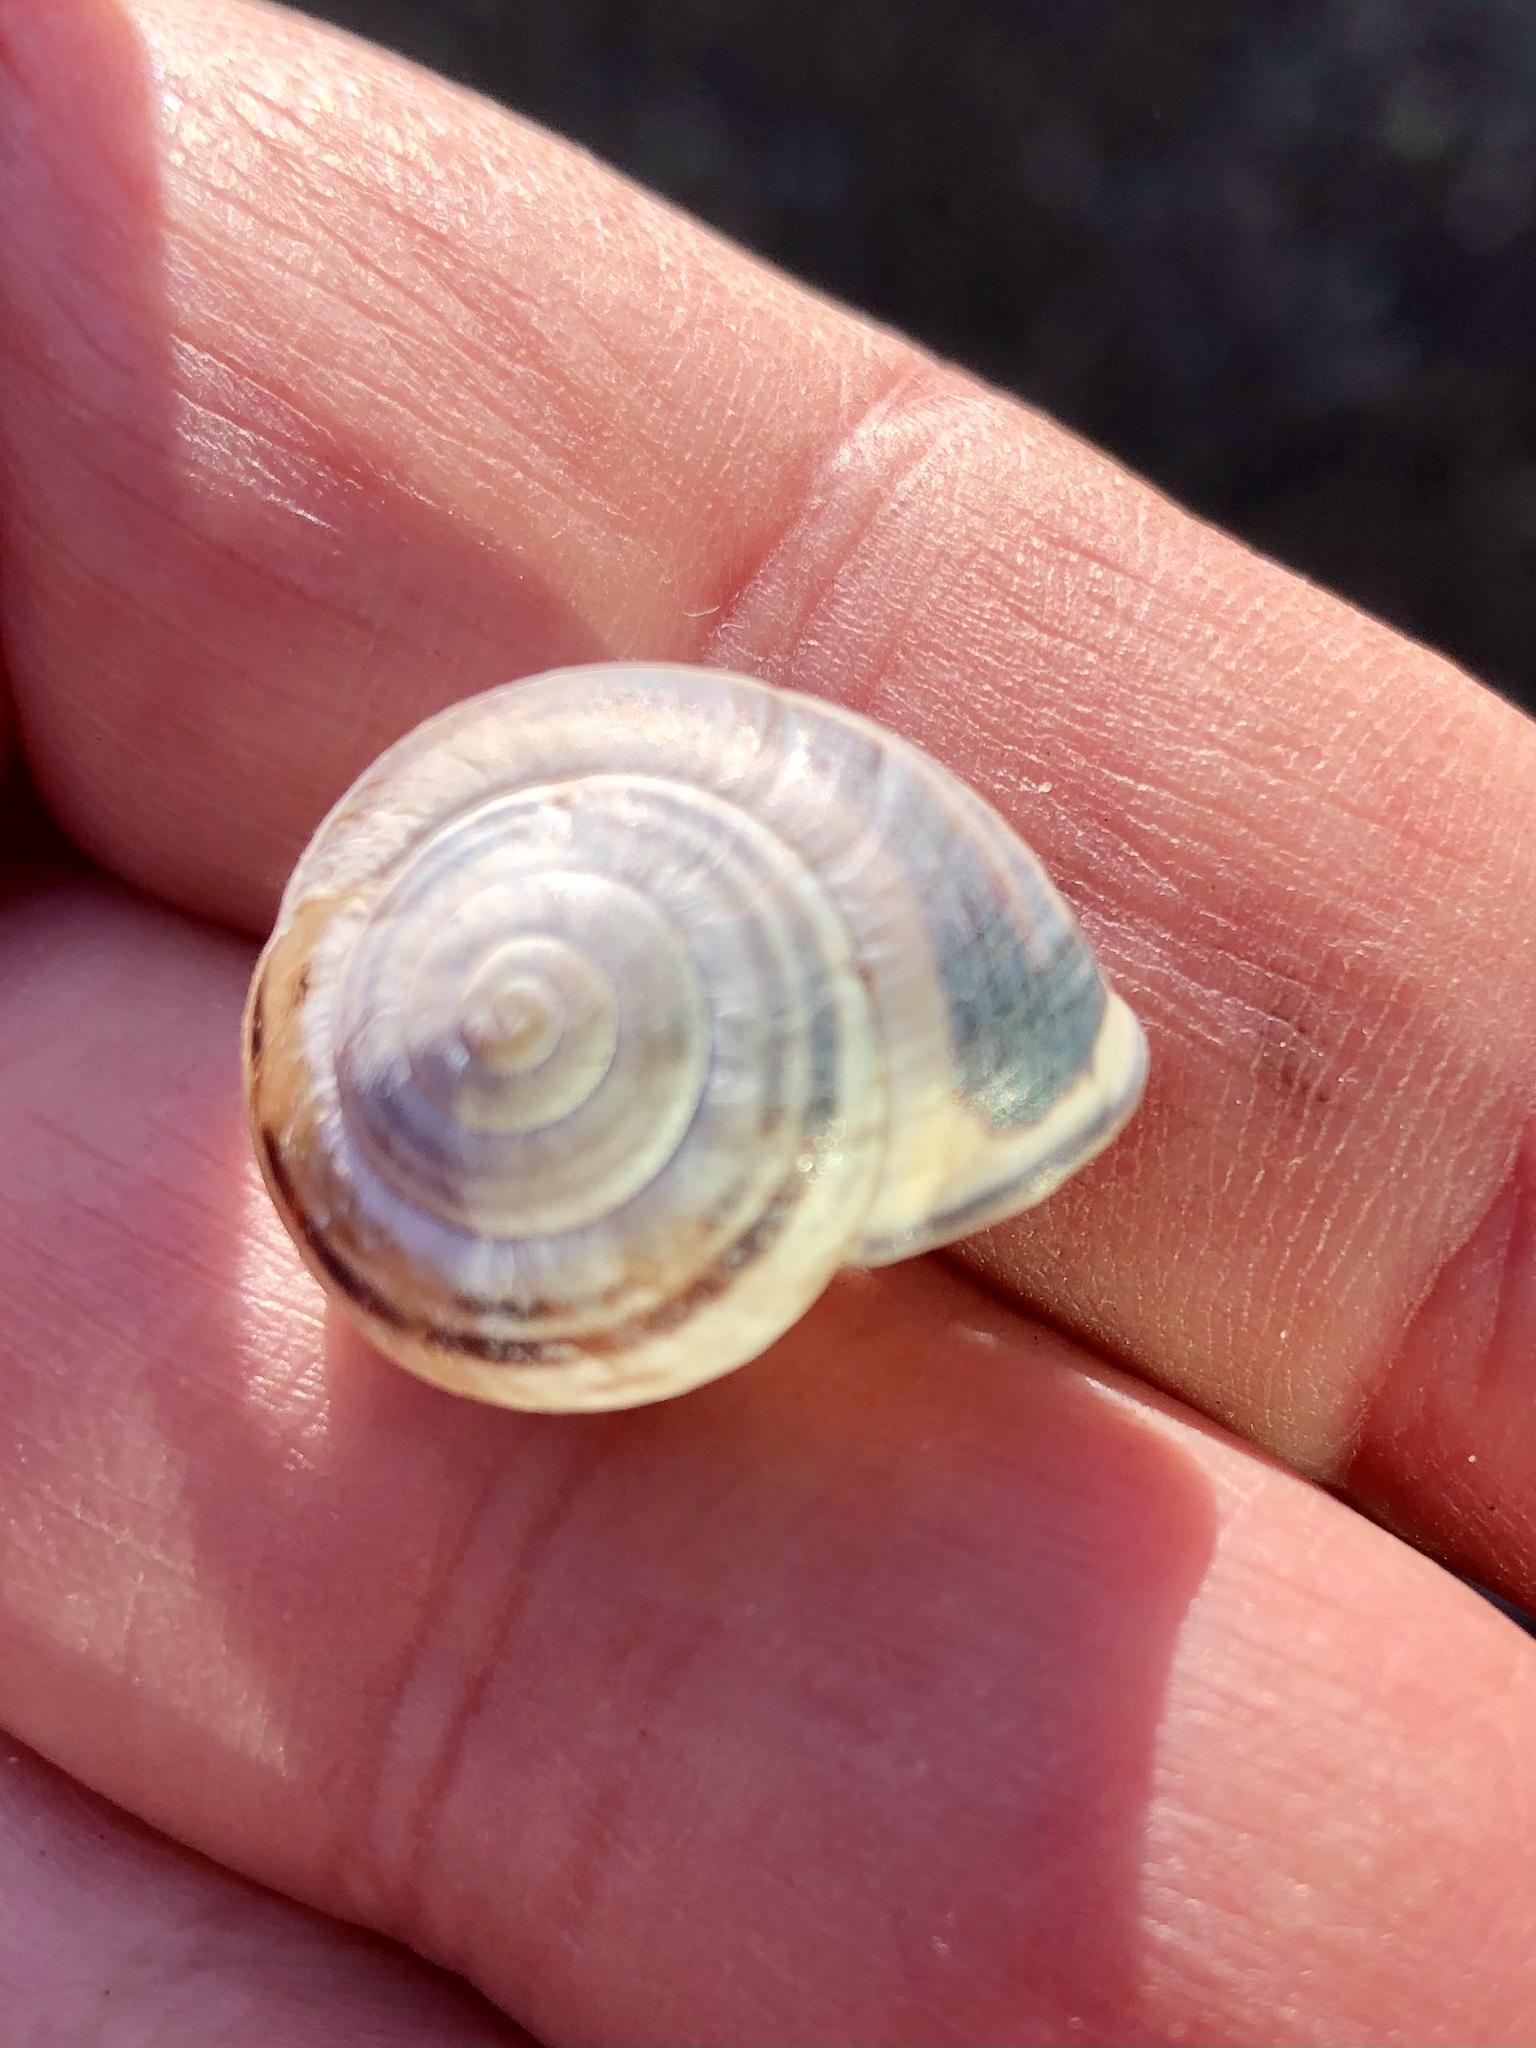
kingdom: Animalia
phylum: Mollusca
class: Gastropoda
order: Stylommatophora
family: Helicidae
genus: Cepaea
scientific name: Cepaea nemoralis
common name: Grovesnail
